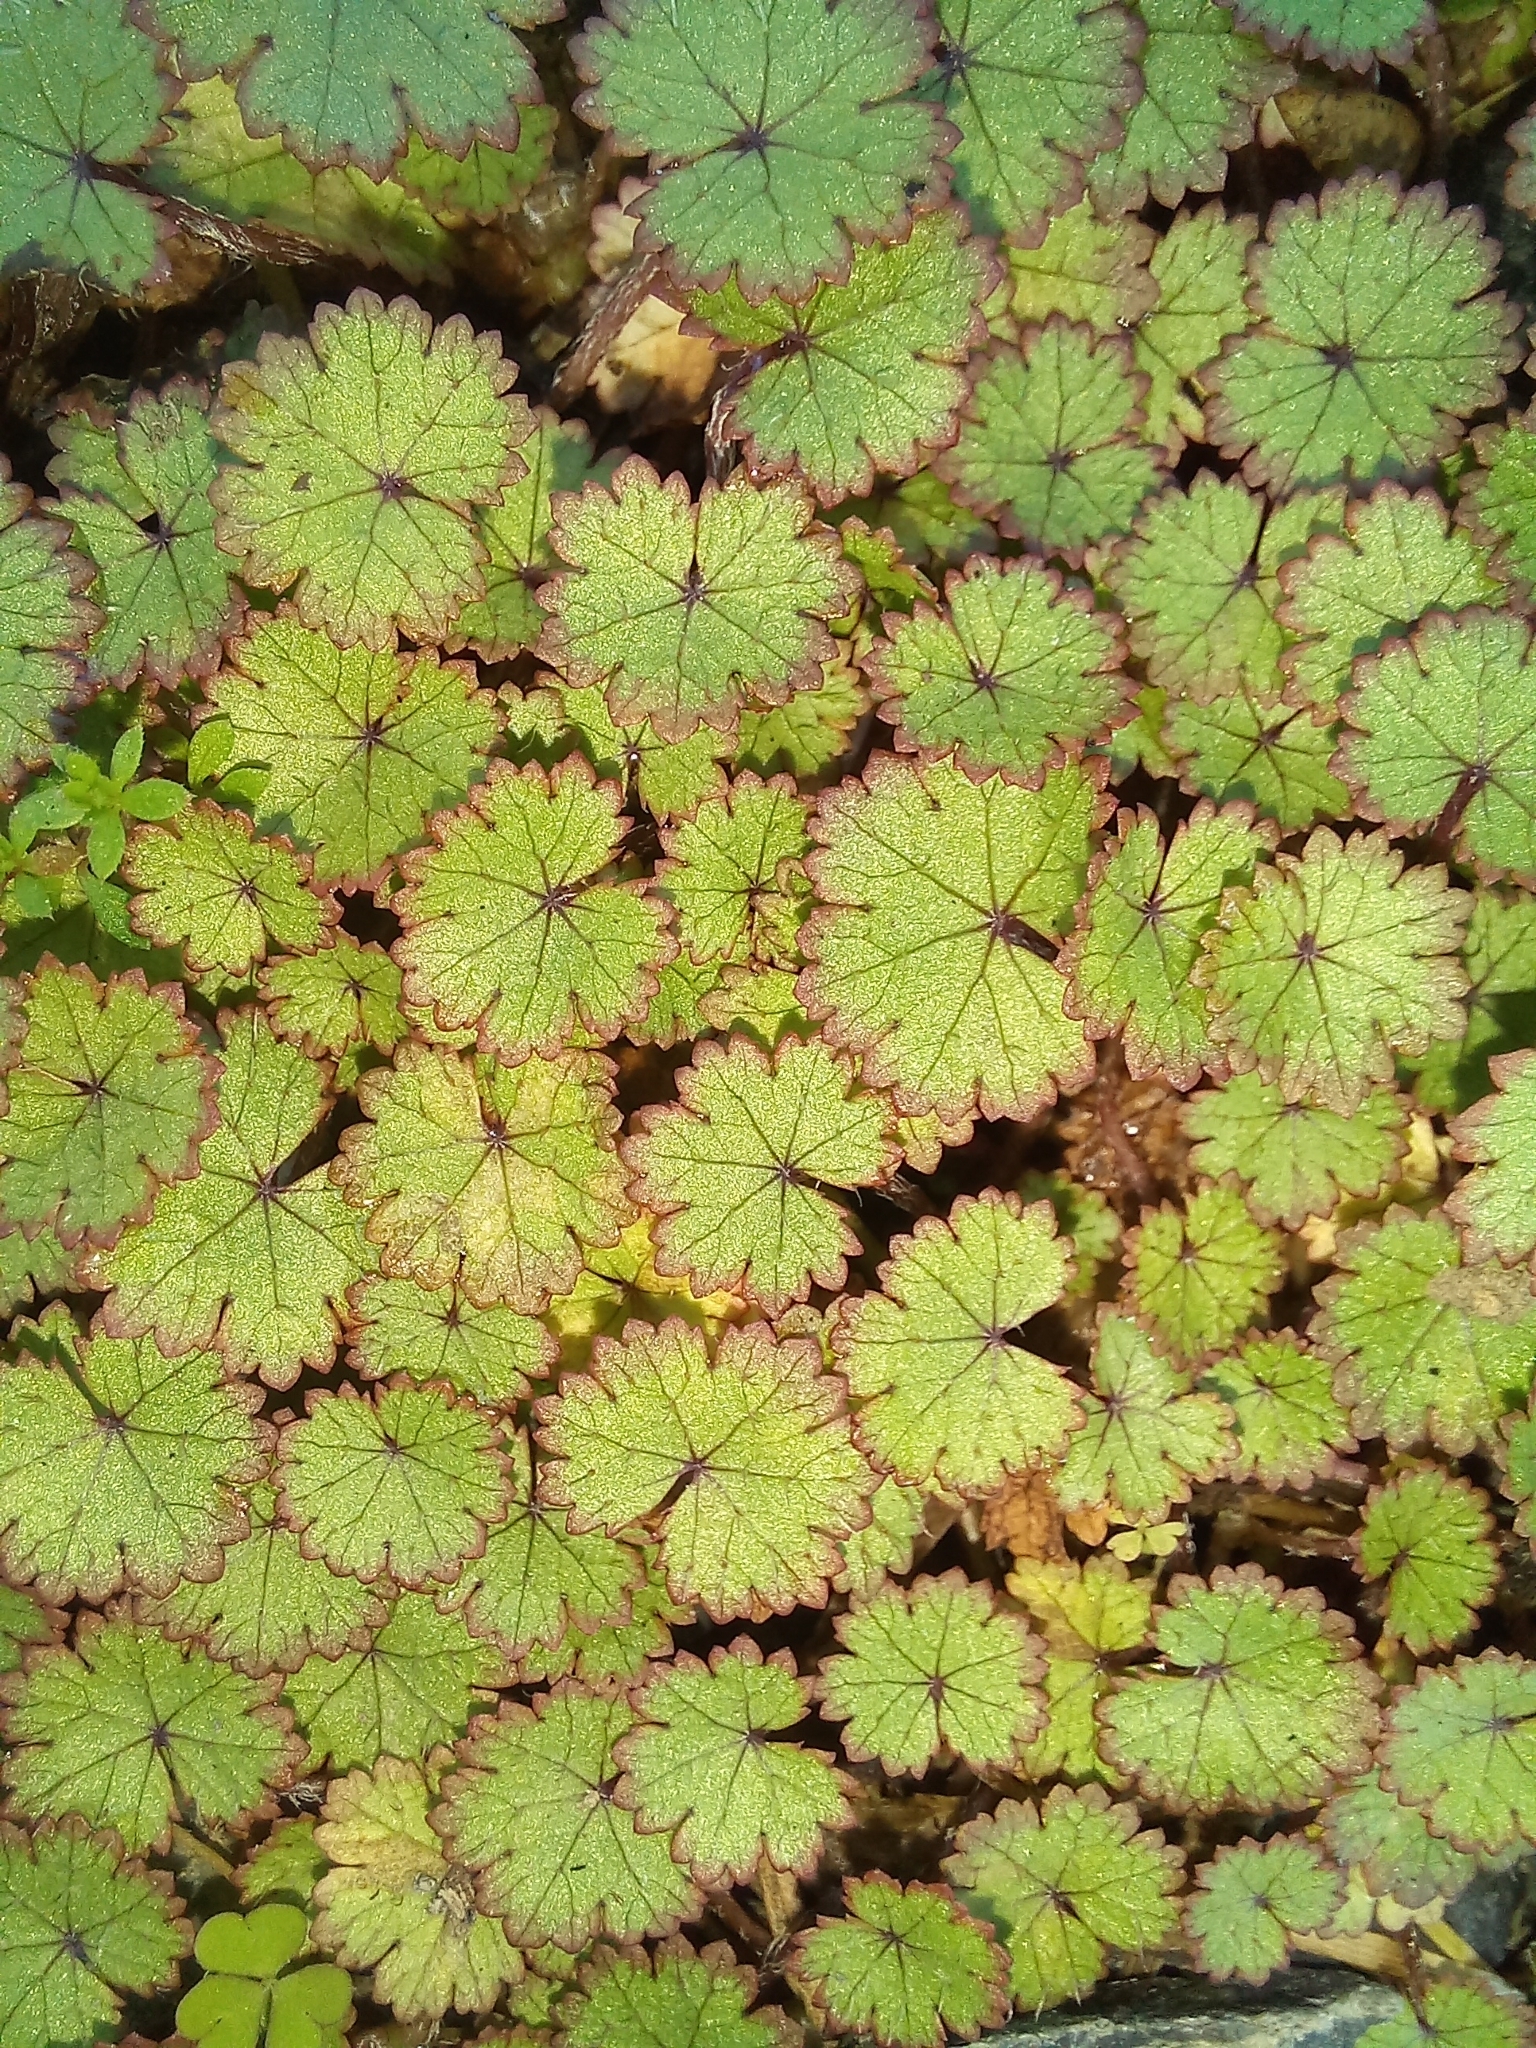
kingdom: Plantae
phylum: Tracheophyta
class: Magnoliopsida
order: Apiales
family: Araliaceae
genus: Hydrocotyle
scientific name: Hydrocotyle moschata
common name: Hairy pennywort
